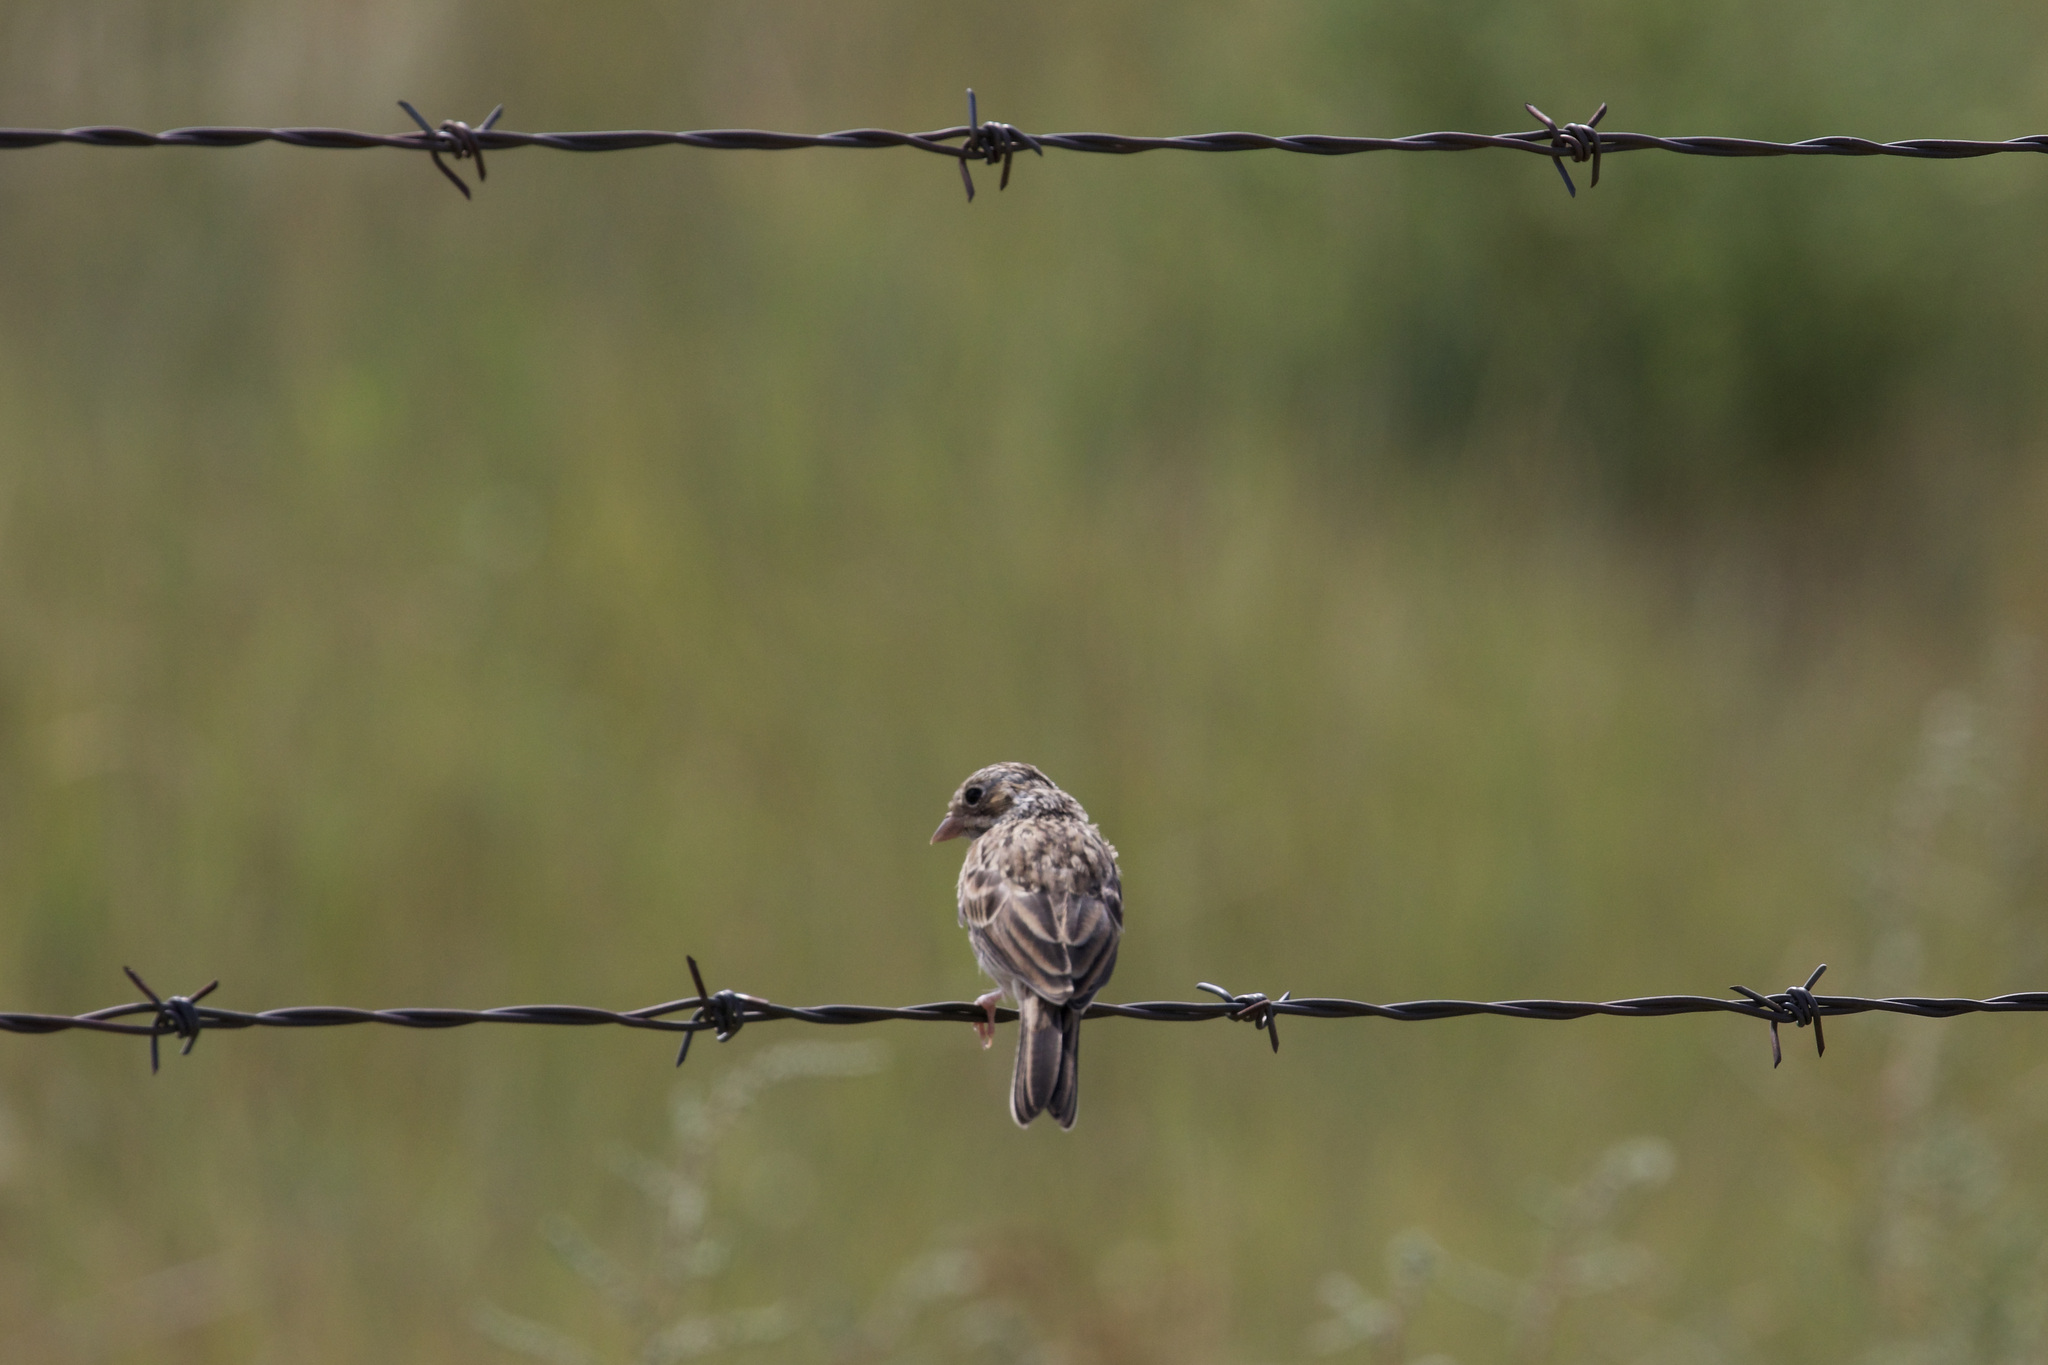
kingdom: Animalia
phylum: Chordata
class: Aves
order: Passeriformes
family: Passerellidae
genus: Pooecetes
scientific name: Pooecetes gramineus
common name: Vesper sparrow
